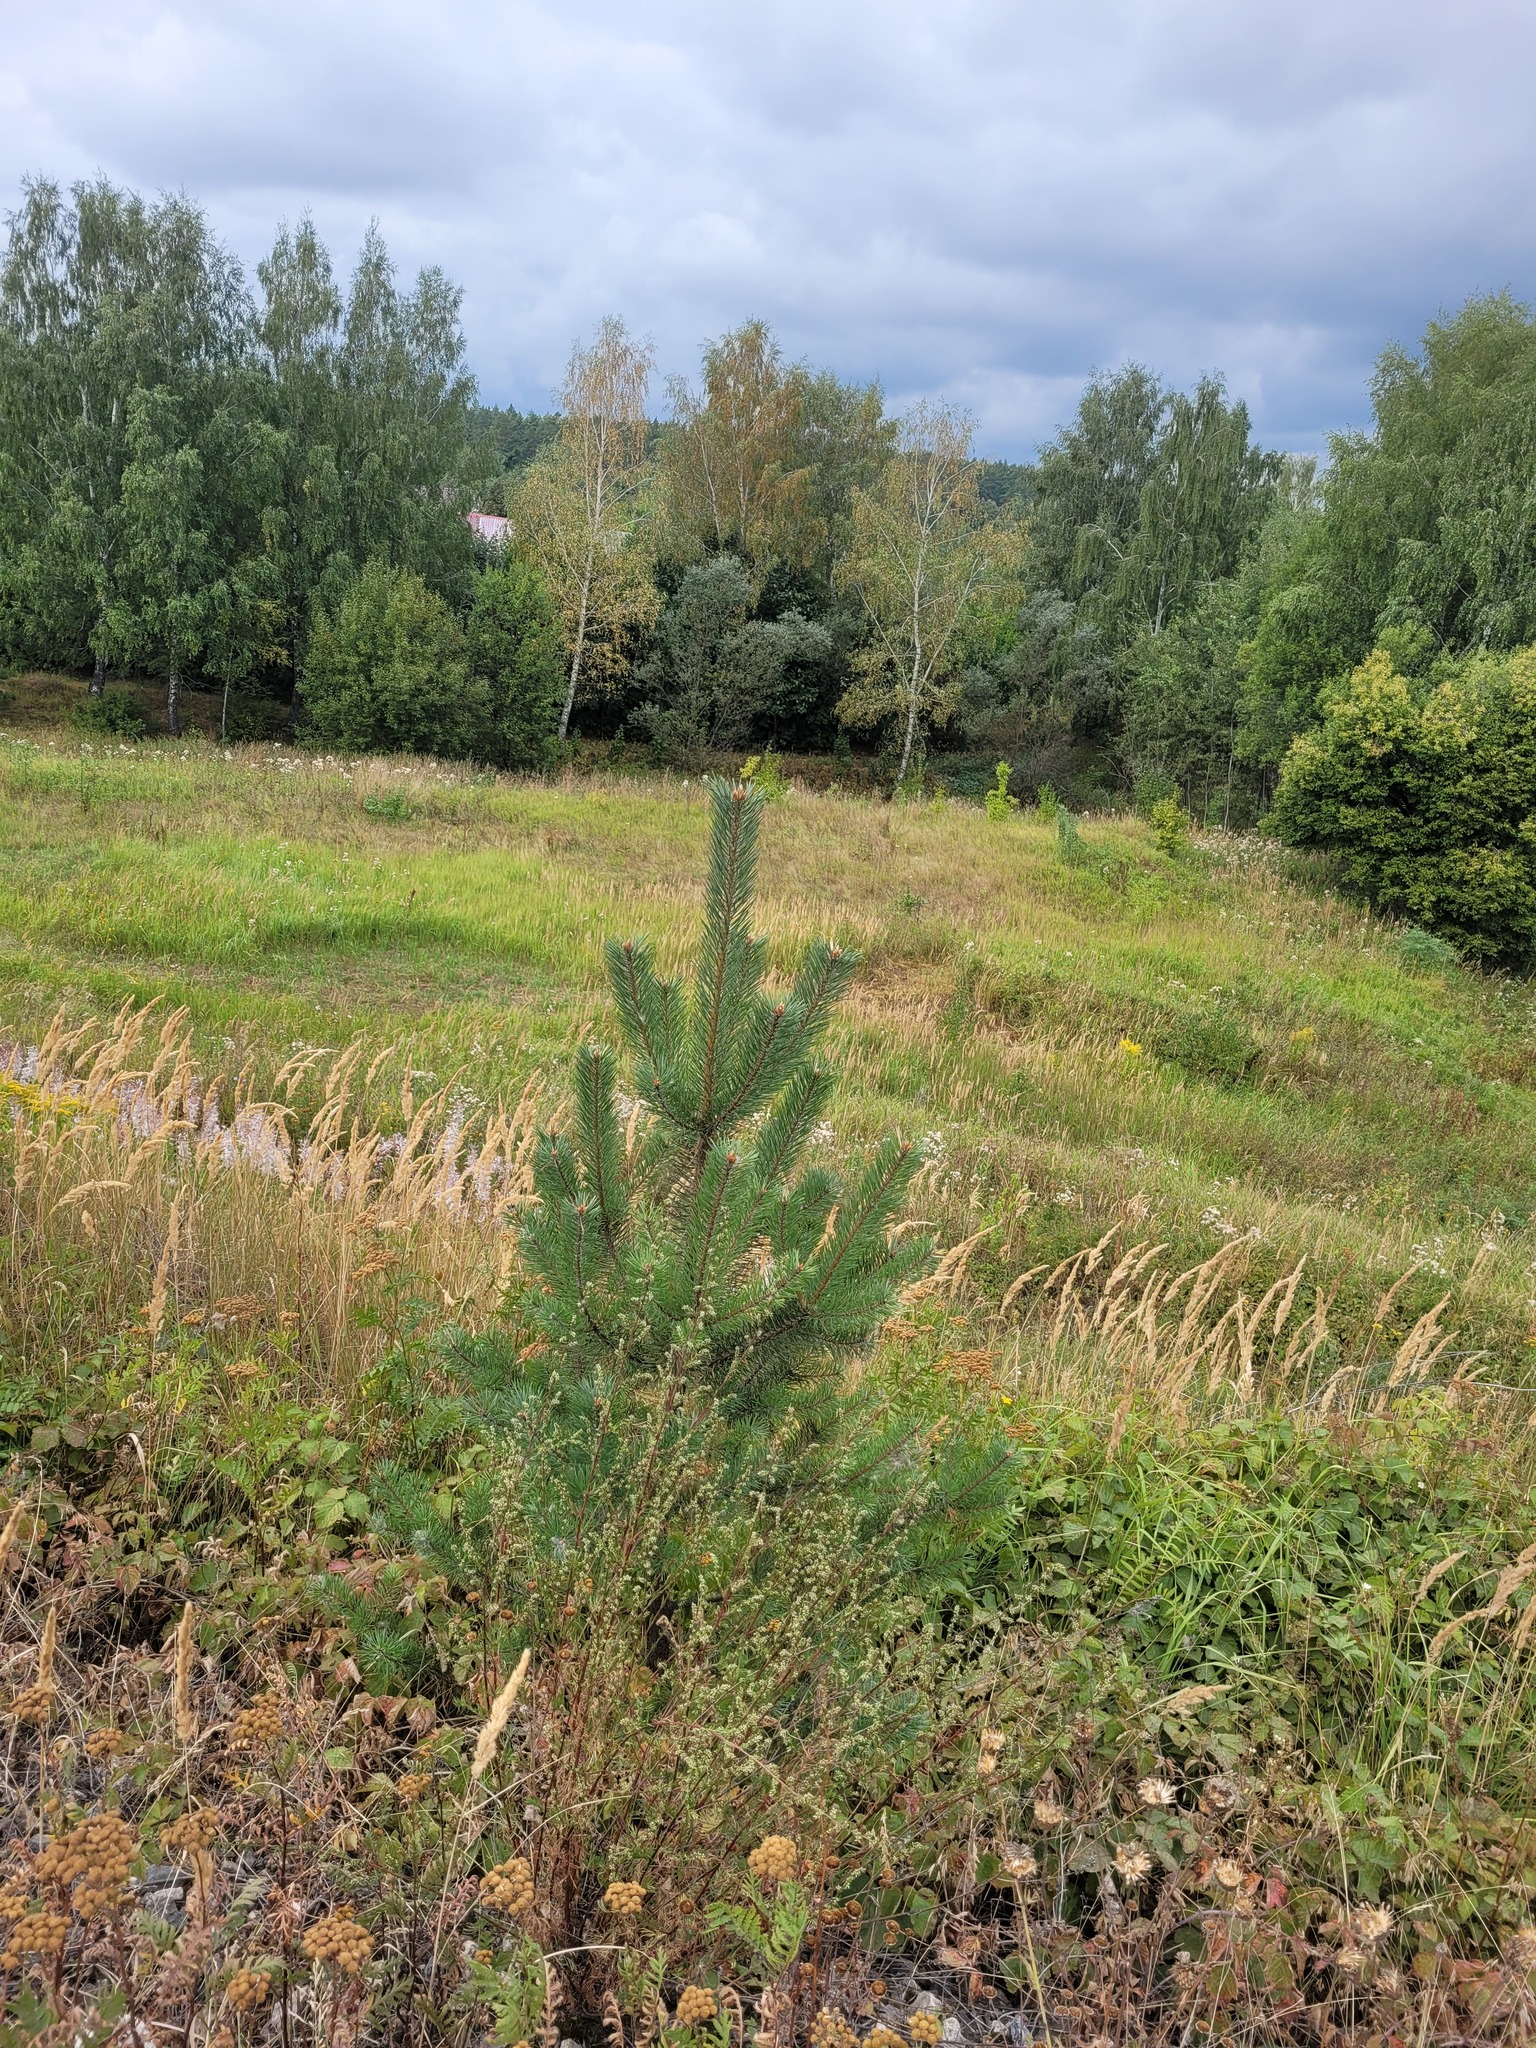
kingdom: Plantae
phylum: Tracheophyta
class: Pinopsida
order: Pinales
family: Pinaceae
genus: Pinus
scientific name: Pinus sylvestris
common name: Scots pine
